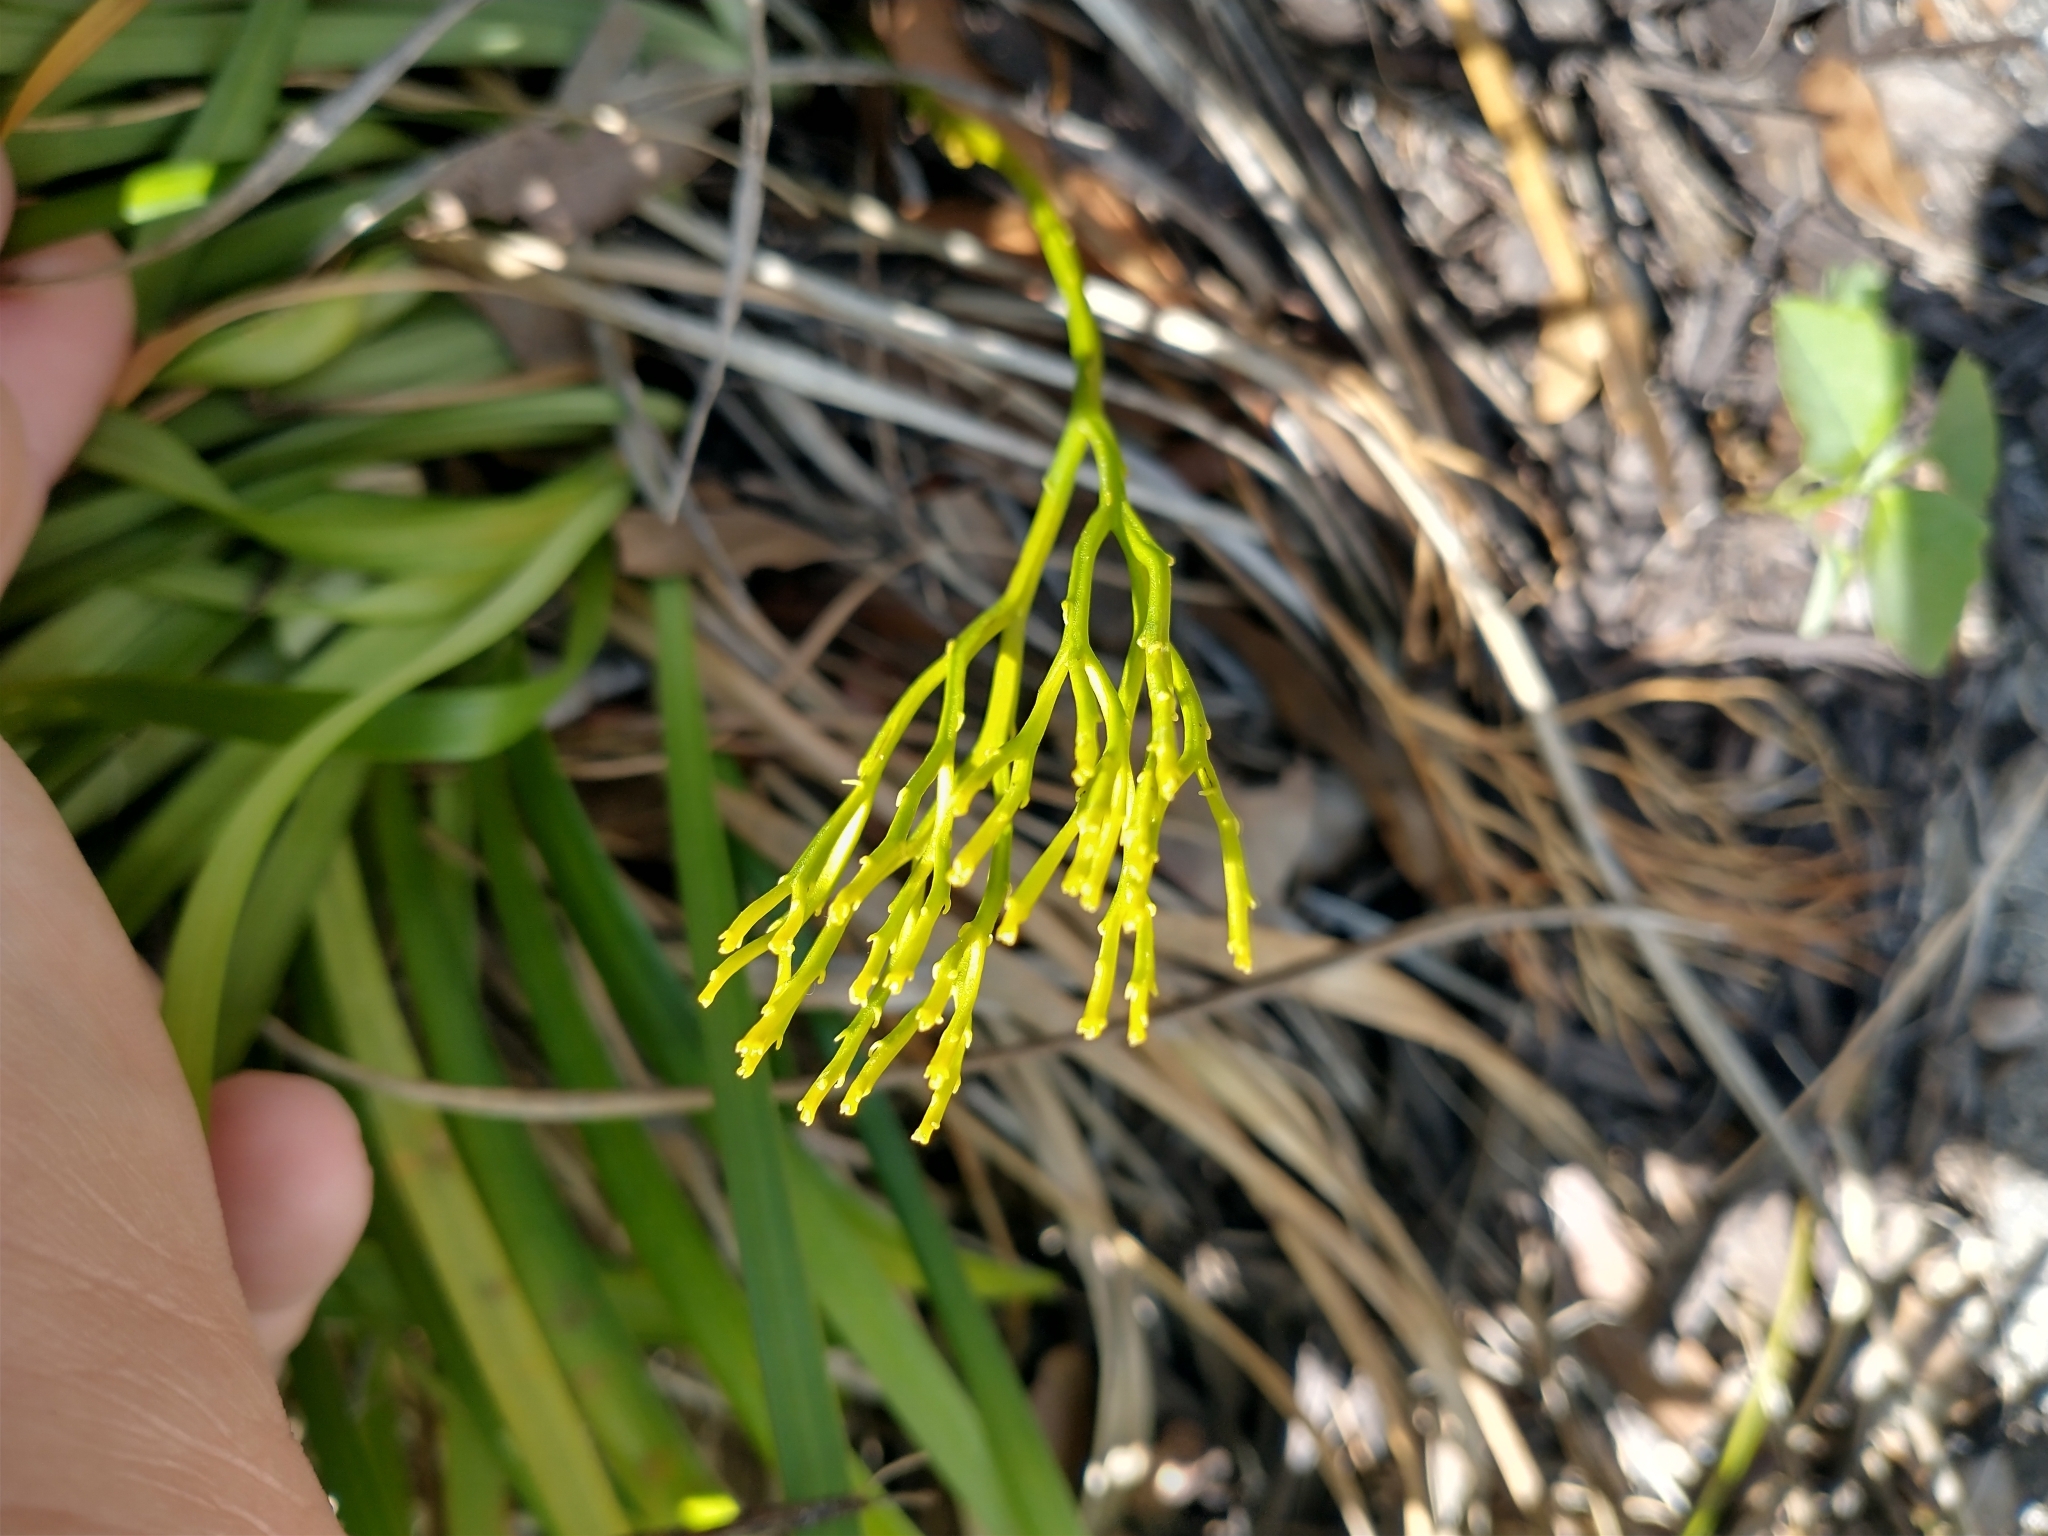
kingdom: Plantae
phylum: Tracheophyta
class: Polypodiopsida
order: Psilotales
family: Psilotaceae
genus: Psilotum
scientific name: Psilotum nudum
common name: Skeleton fork fern
